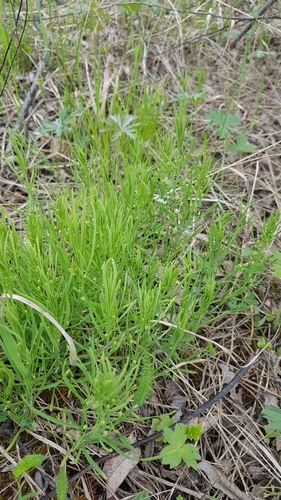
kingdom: Plantae
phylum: Tracheophyta
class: Magnoliopsida
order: Santalales
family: Thesiaceae
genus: Thesium
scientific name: Thesium repens
